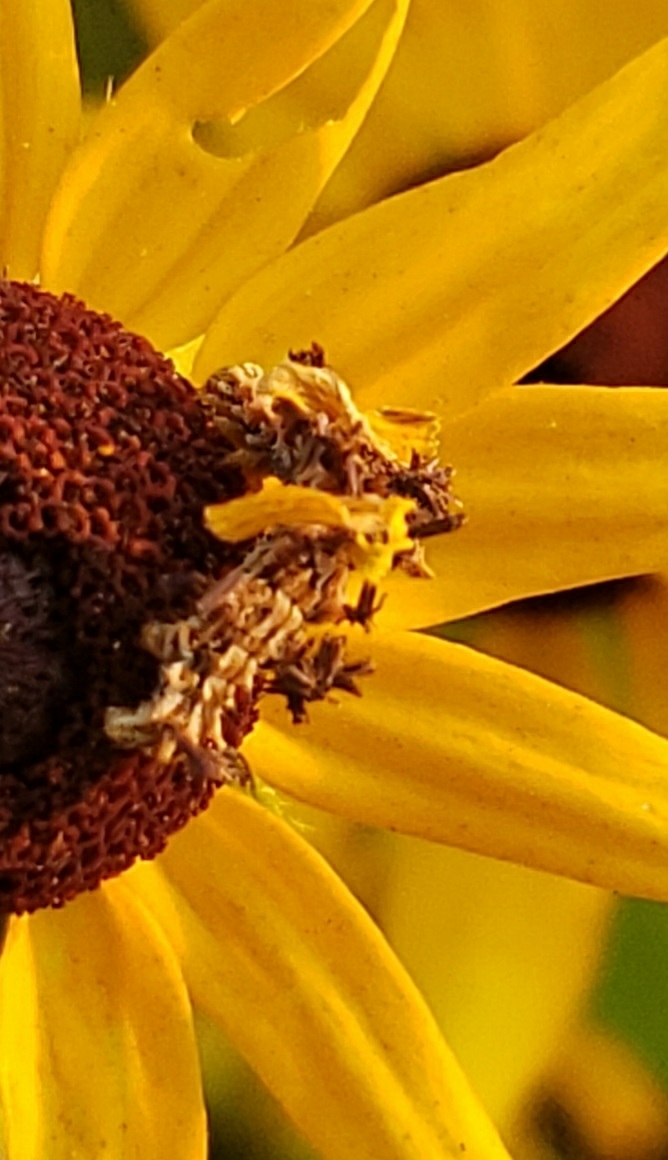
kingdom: Animalia
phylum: Arthropoda
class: Insecta
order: Lepidoptera
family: Geometridae
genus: Synchlora
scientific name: Synchlora aerata
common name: Wavy-lined emerald
